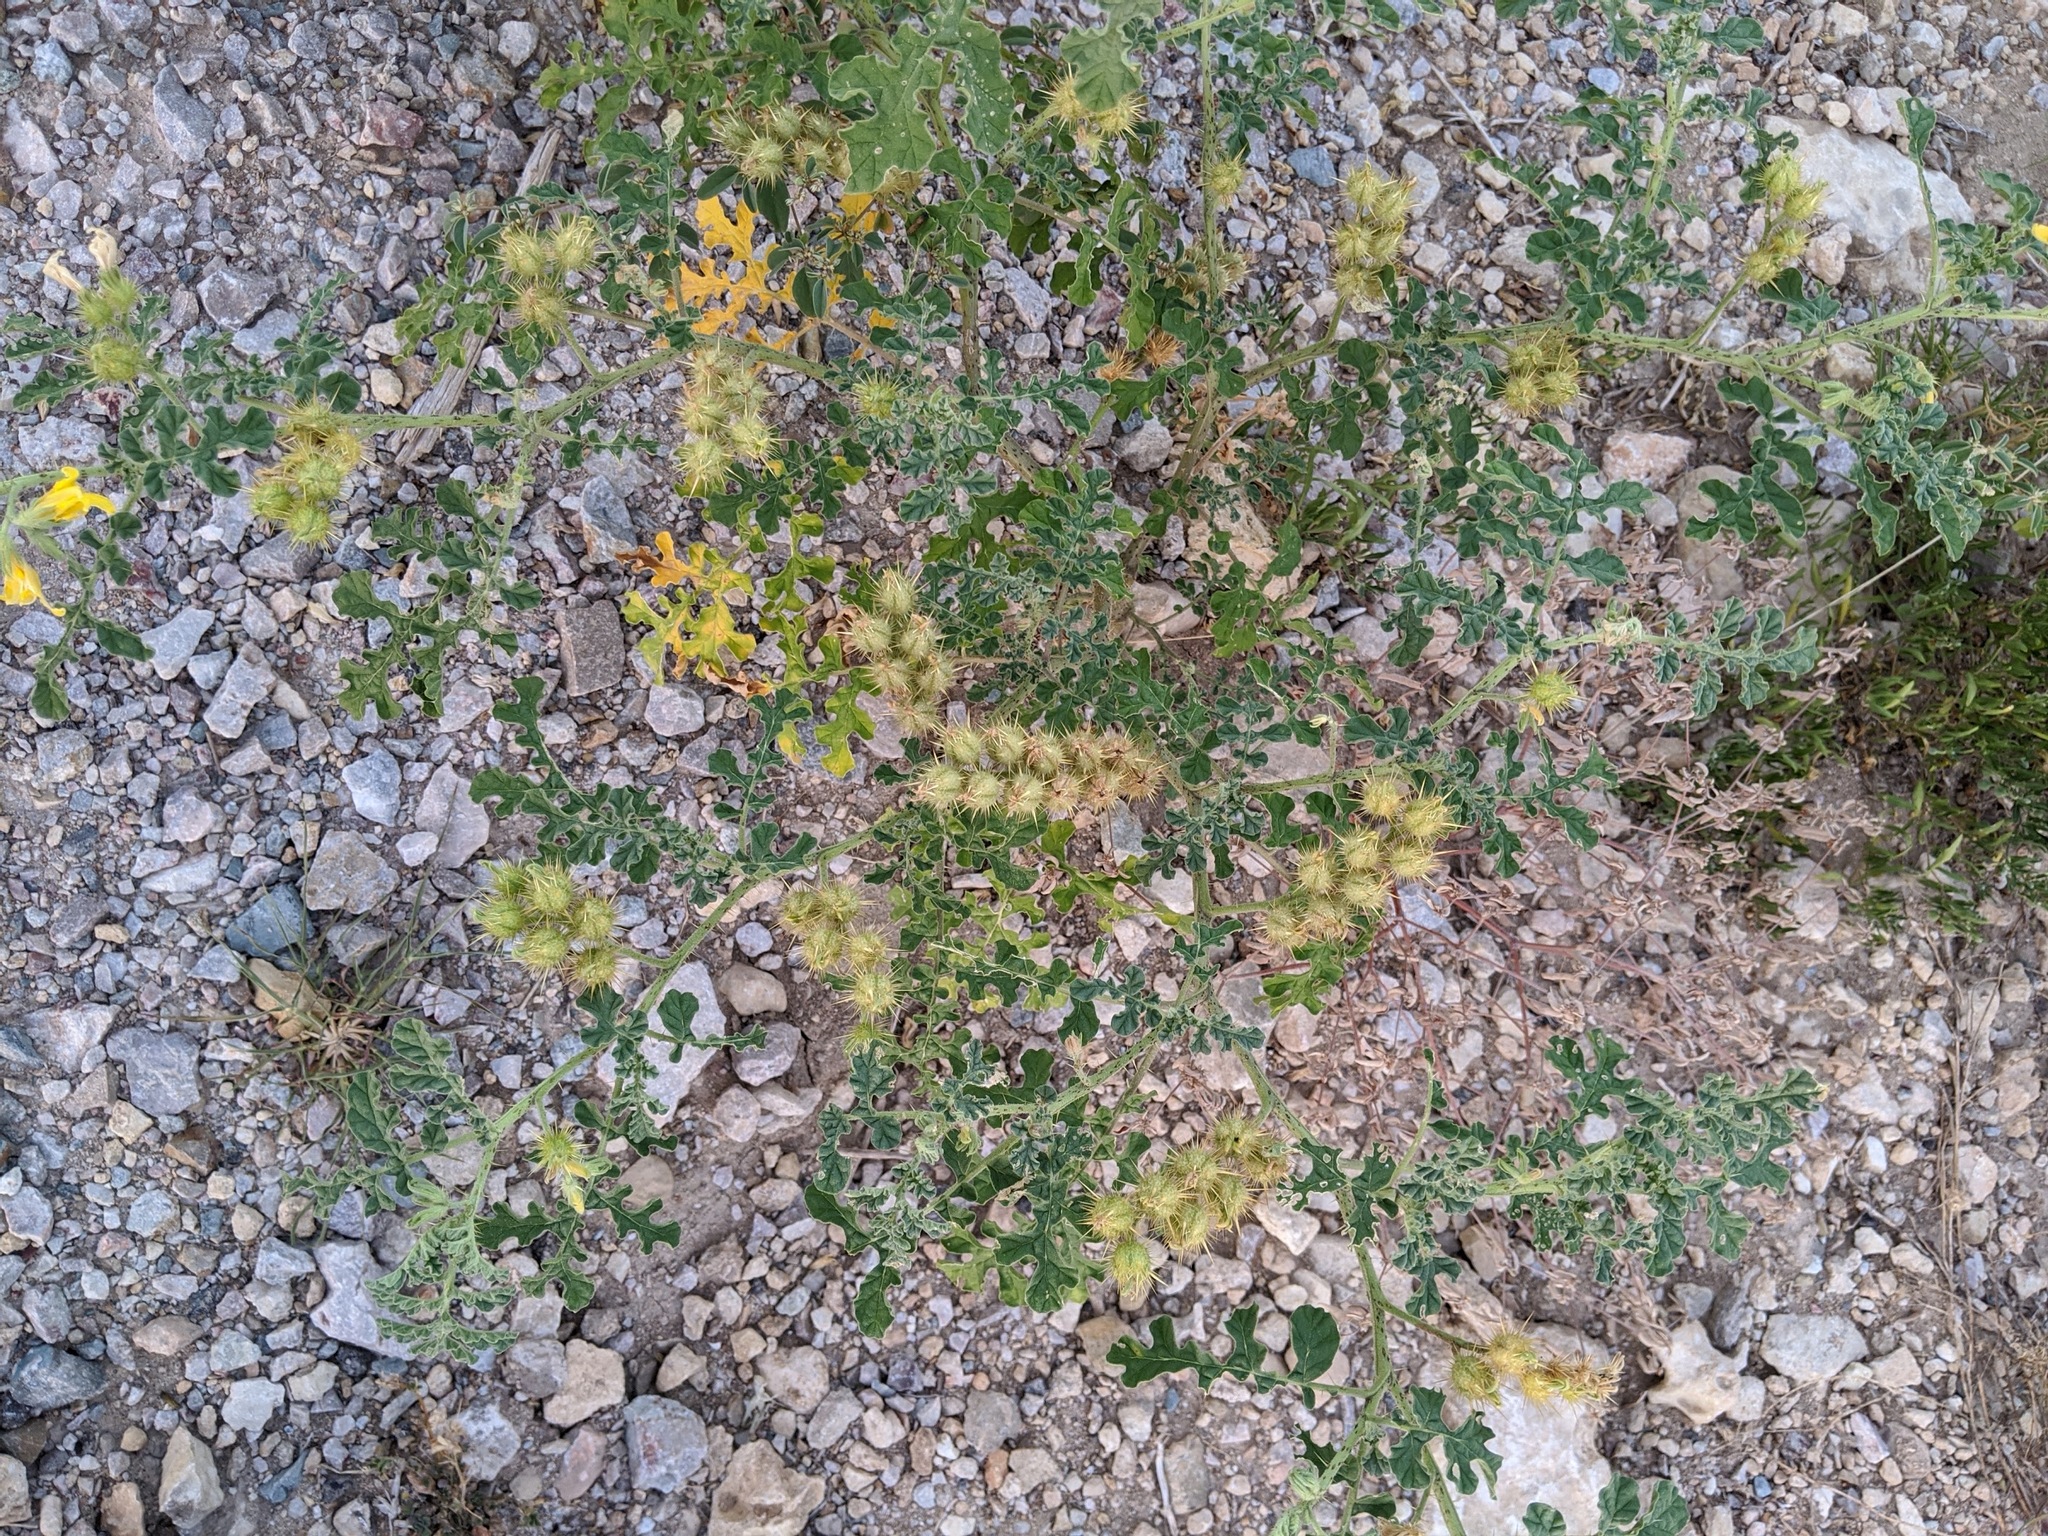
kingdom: Plantae
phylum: Tracheophyta
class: Magnoliopsida
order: Solanales
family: Solanaceae
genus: Solanum
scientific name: Solanum angustifolium
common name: Buffalobur nightshade
